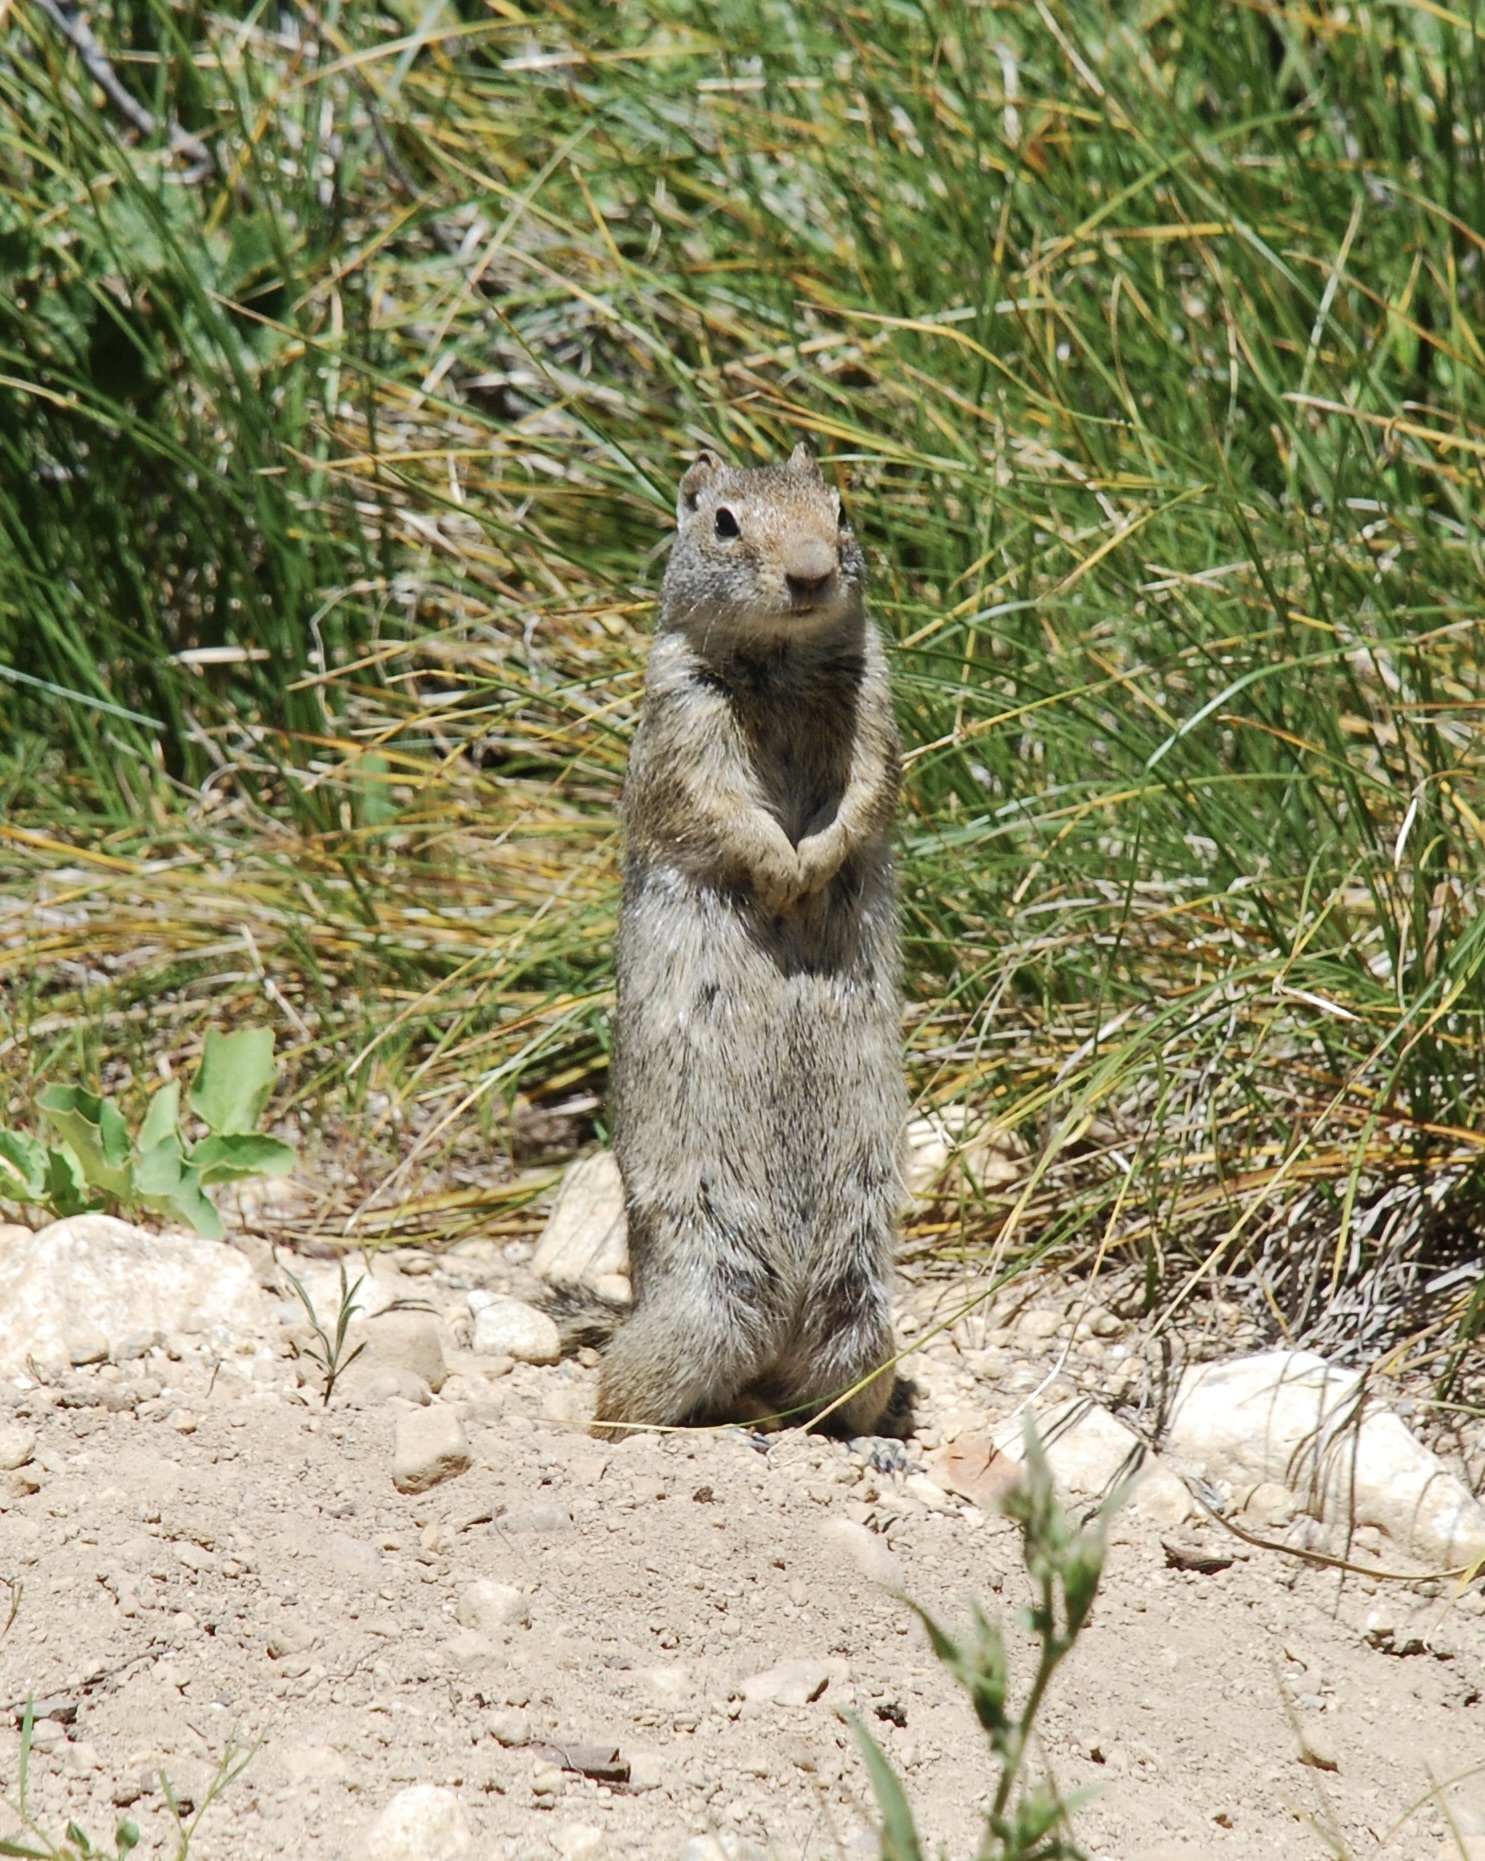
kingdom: Animalia
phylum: Chordata
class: Mammalia
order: Rodentia
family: Sciuridae
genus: Urocitellus
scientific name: Urocitellus armatus
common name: Uinta ground squirrel
